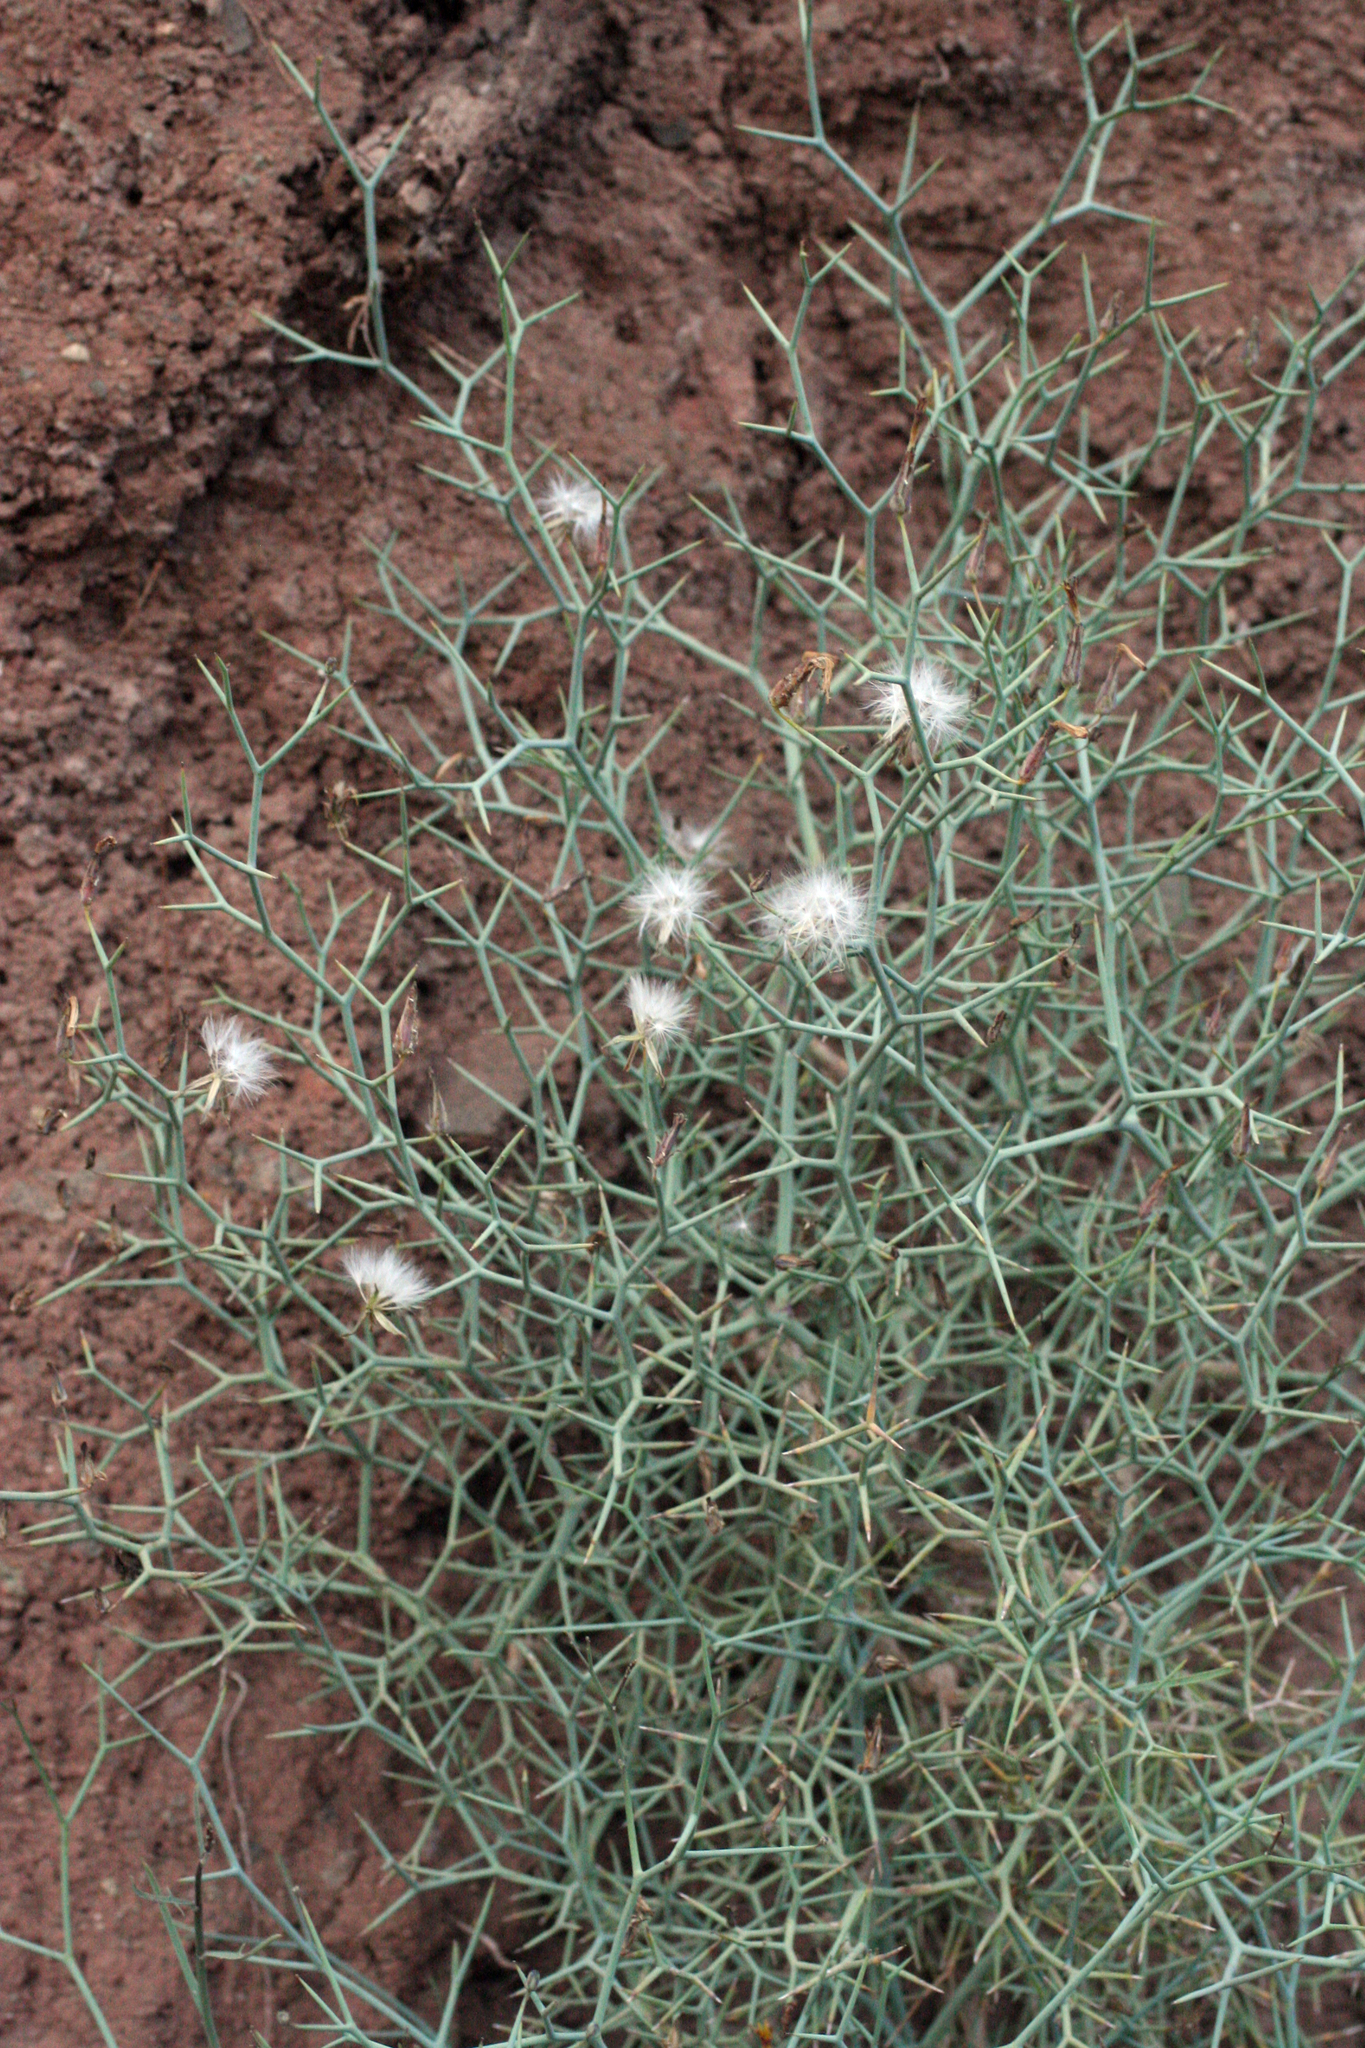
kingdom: Plantae
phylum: Tracheophyta
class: Magnoliopsida
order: Asterales
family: Asteraceae
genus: Launaea
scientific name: Launaea arborescens
